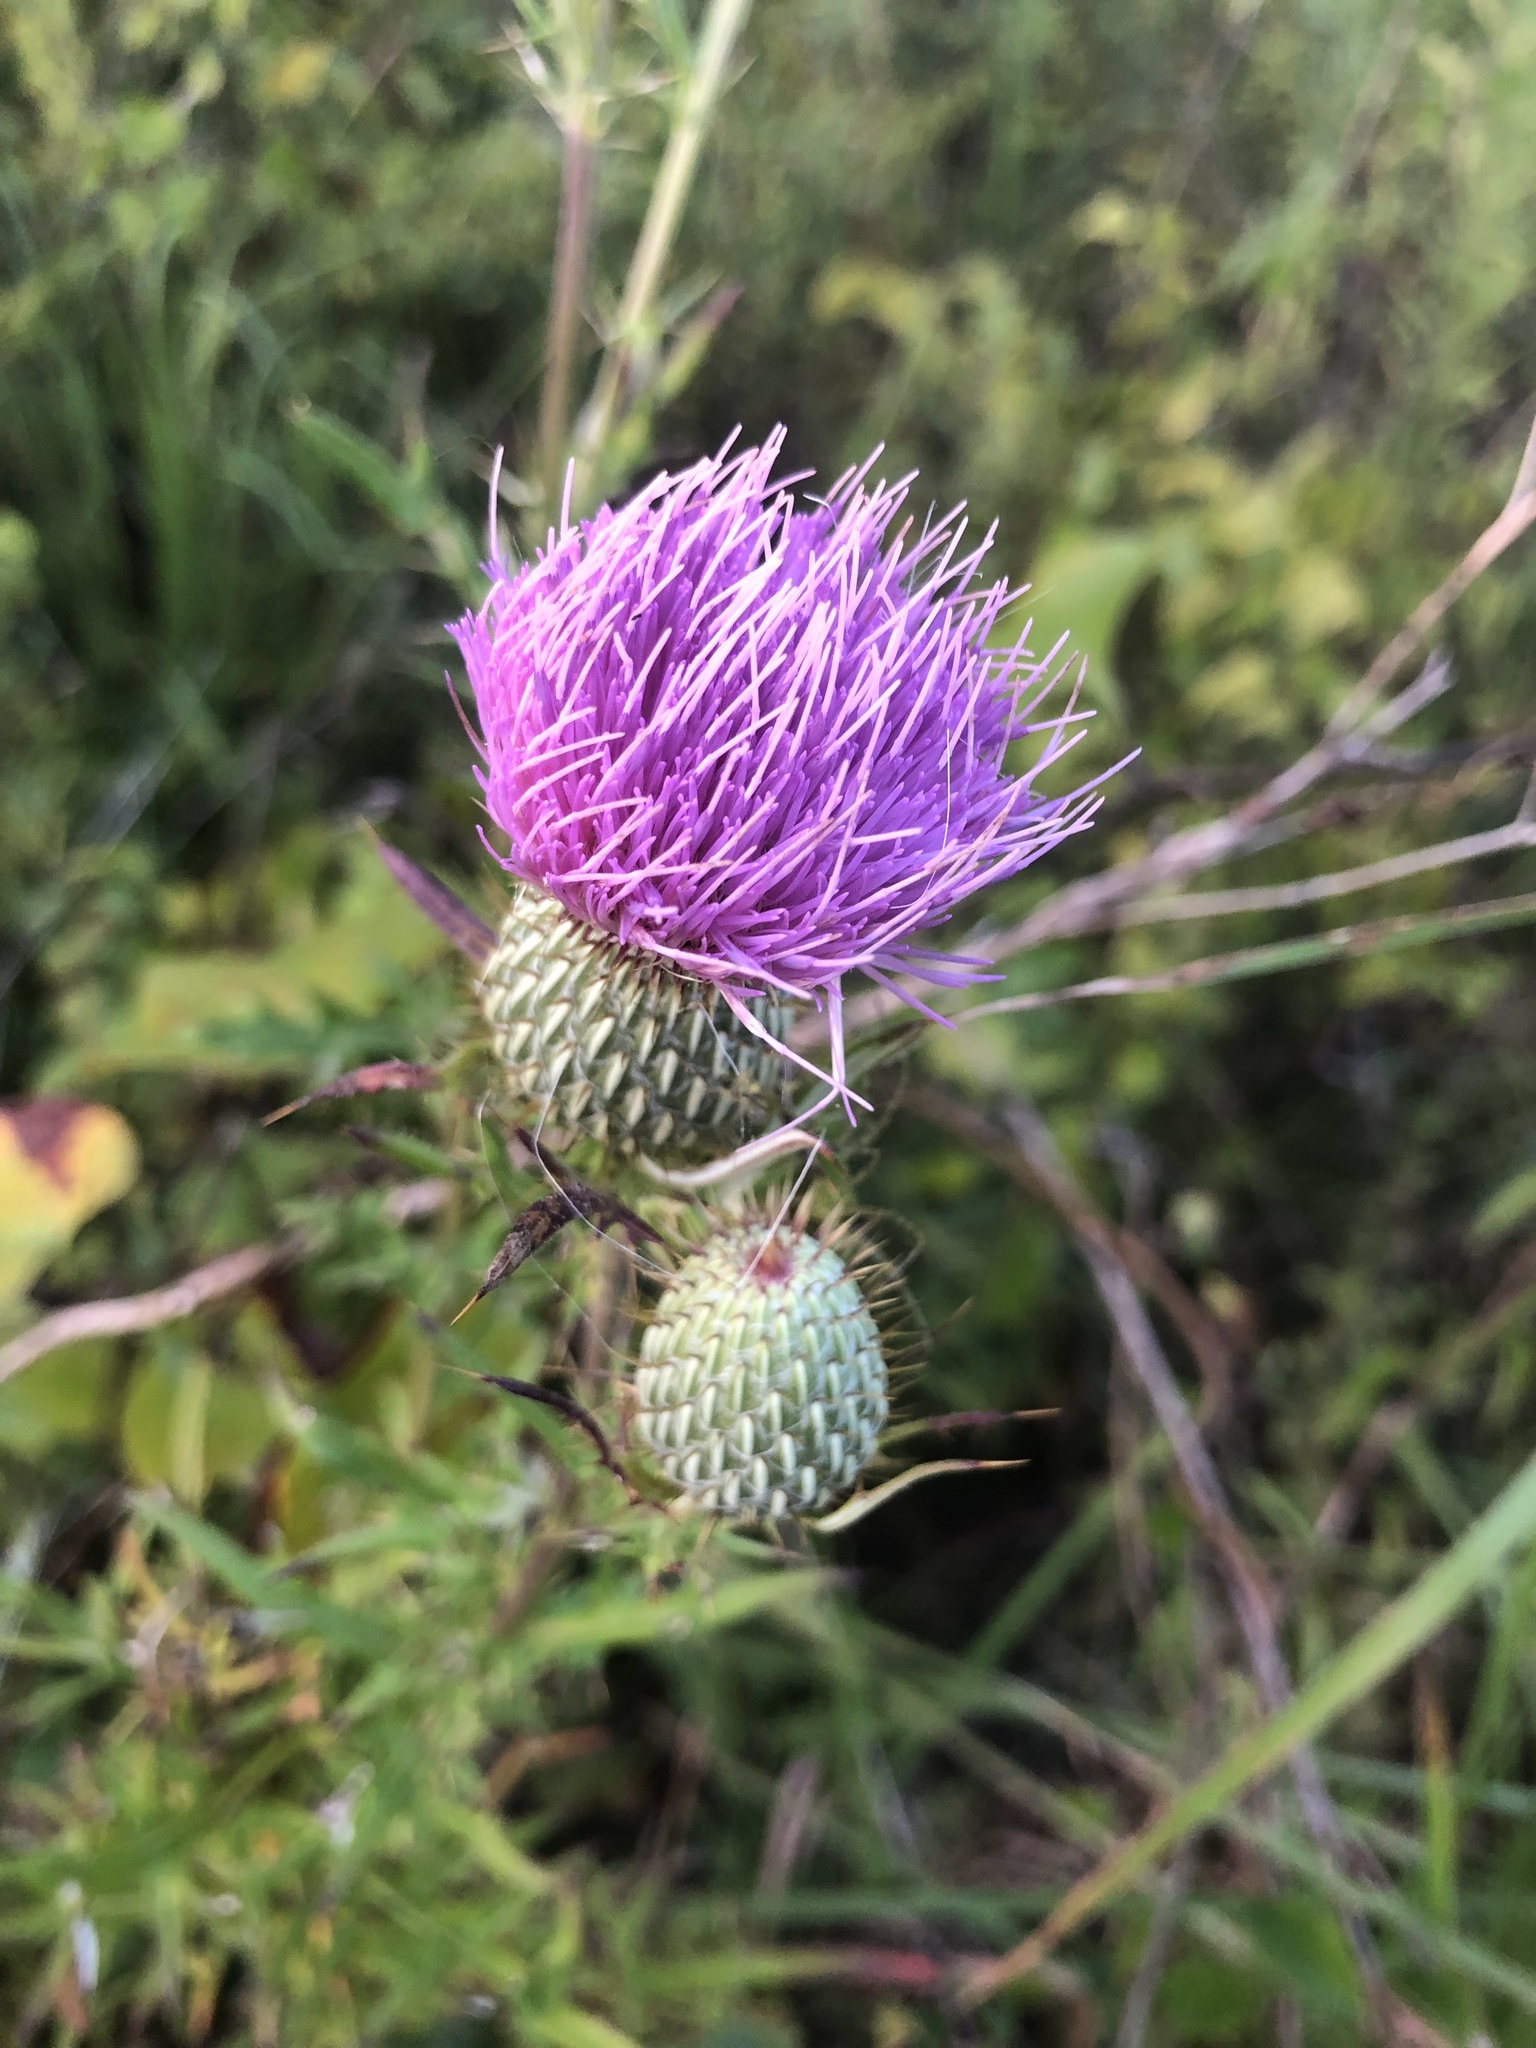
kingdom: Plantae
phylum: Tracheophyta
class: Magnoliopsida
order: Asterales
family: Asteraceae
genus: Cirsium
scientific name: Cirsium discolor
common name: Field thistle
